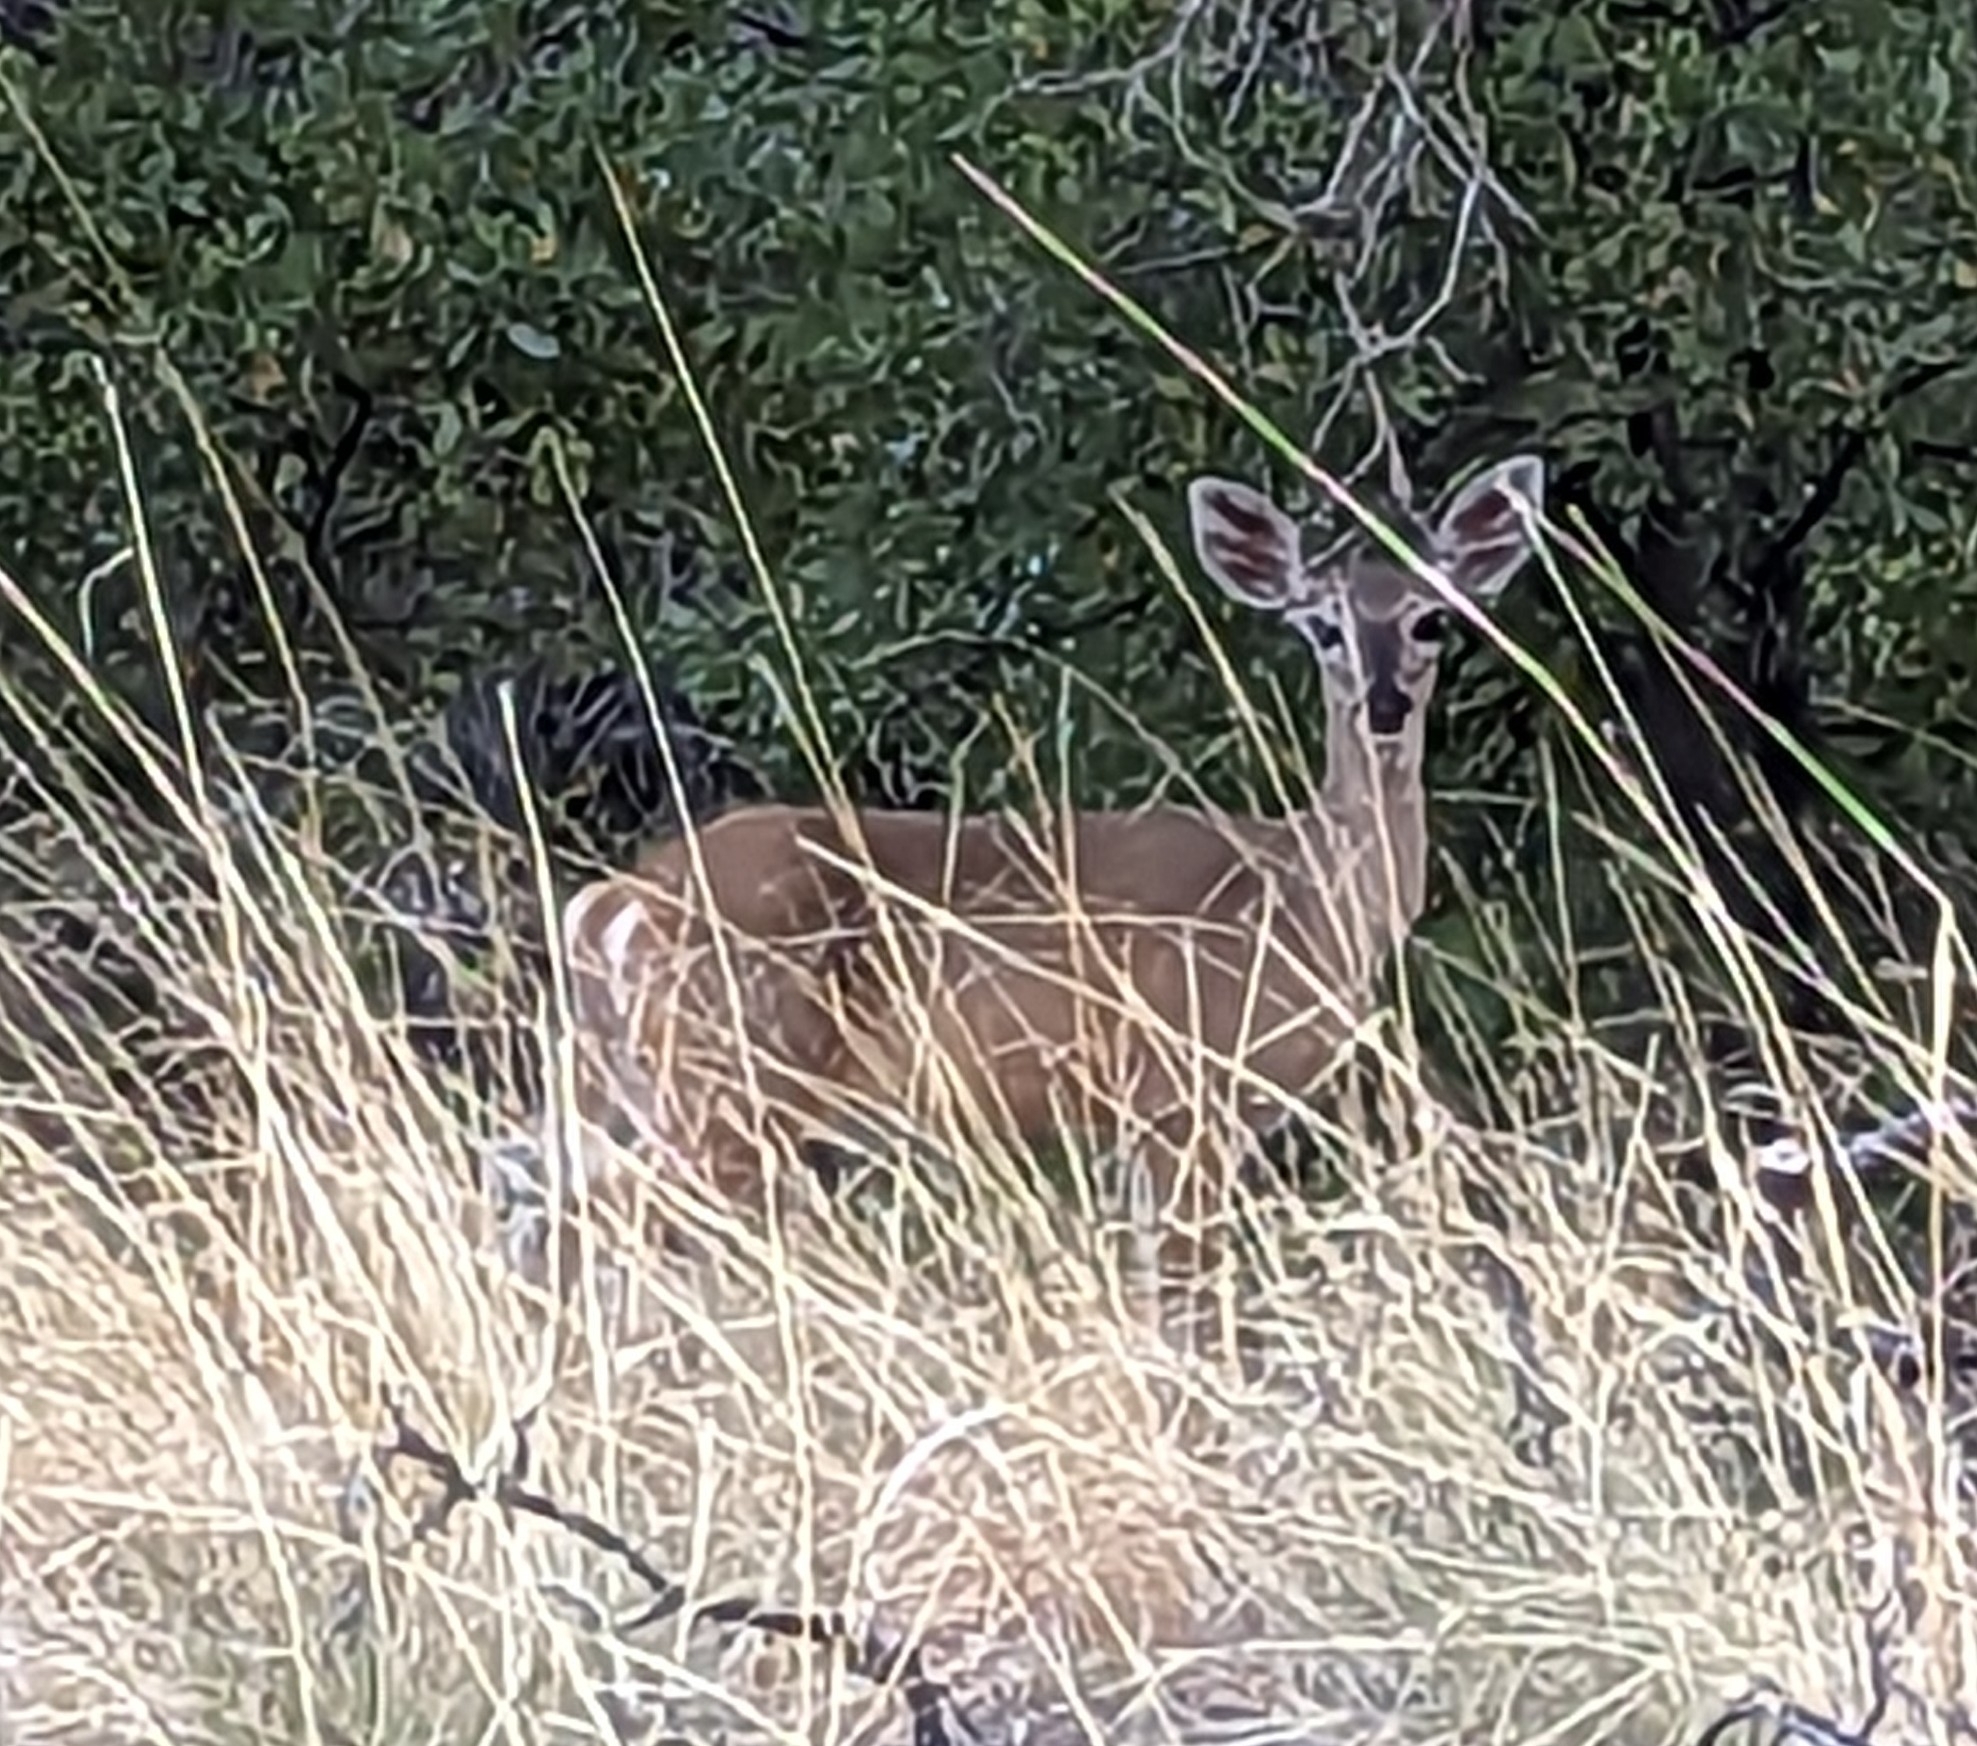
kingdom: Animalia
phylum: Chordata
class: Mammalia
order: Artiodactyla
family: Cervidae
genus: Odocoileus
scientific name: Odocoileus virginianus
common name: White-tailed deer
